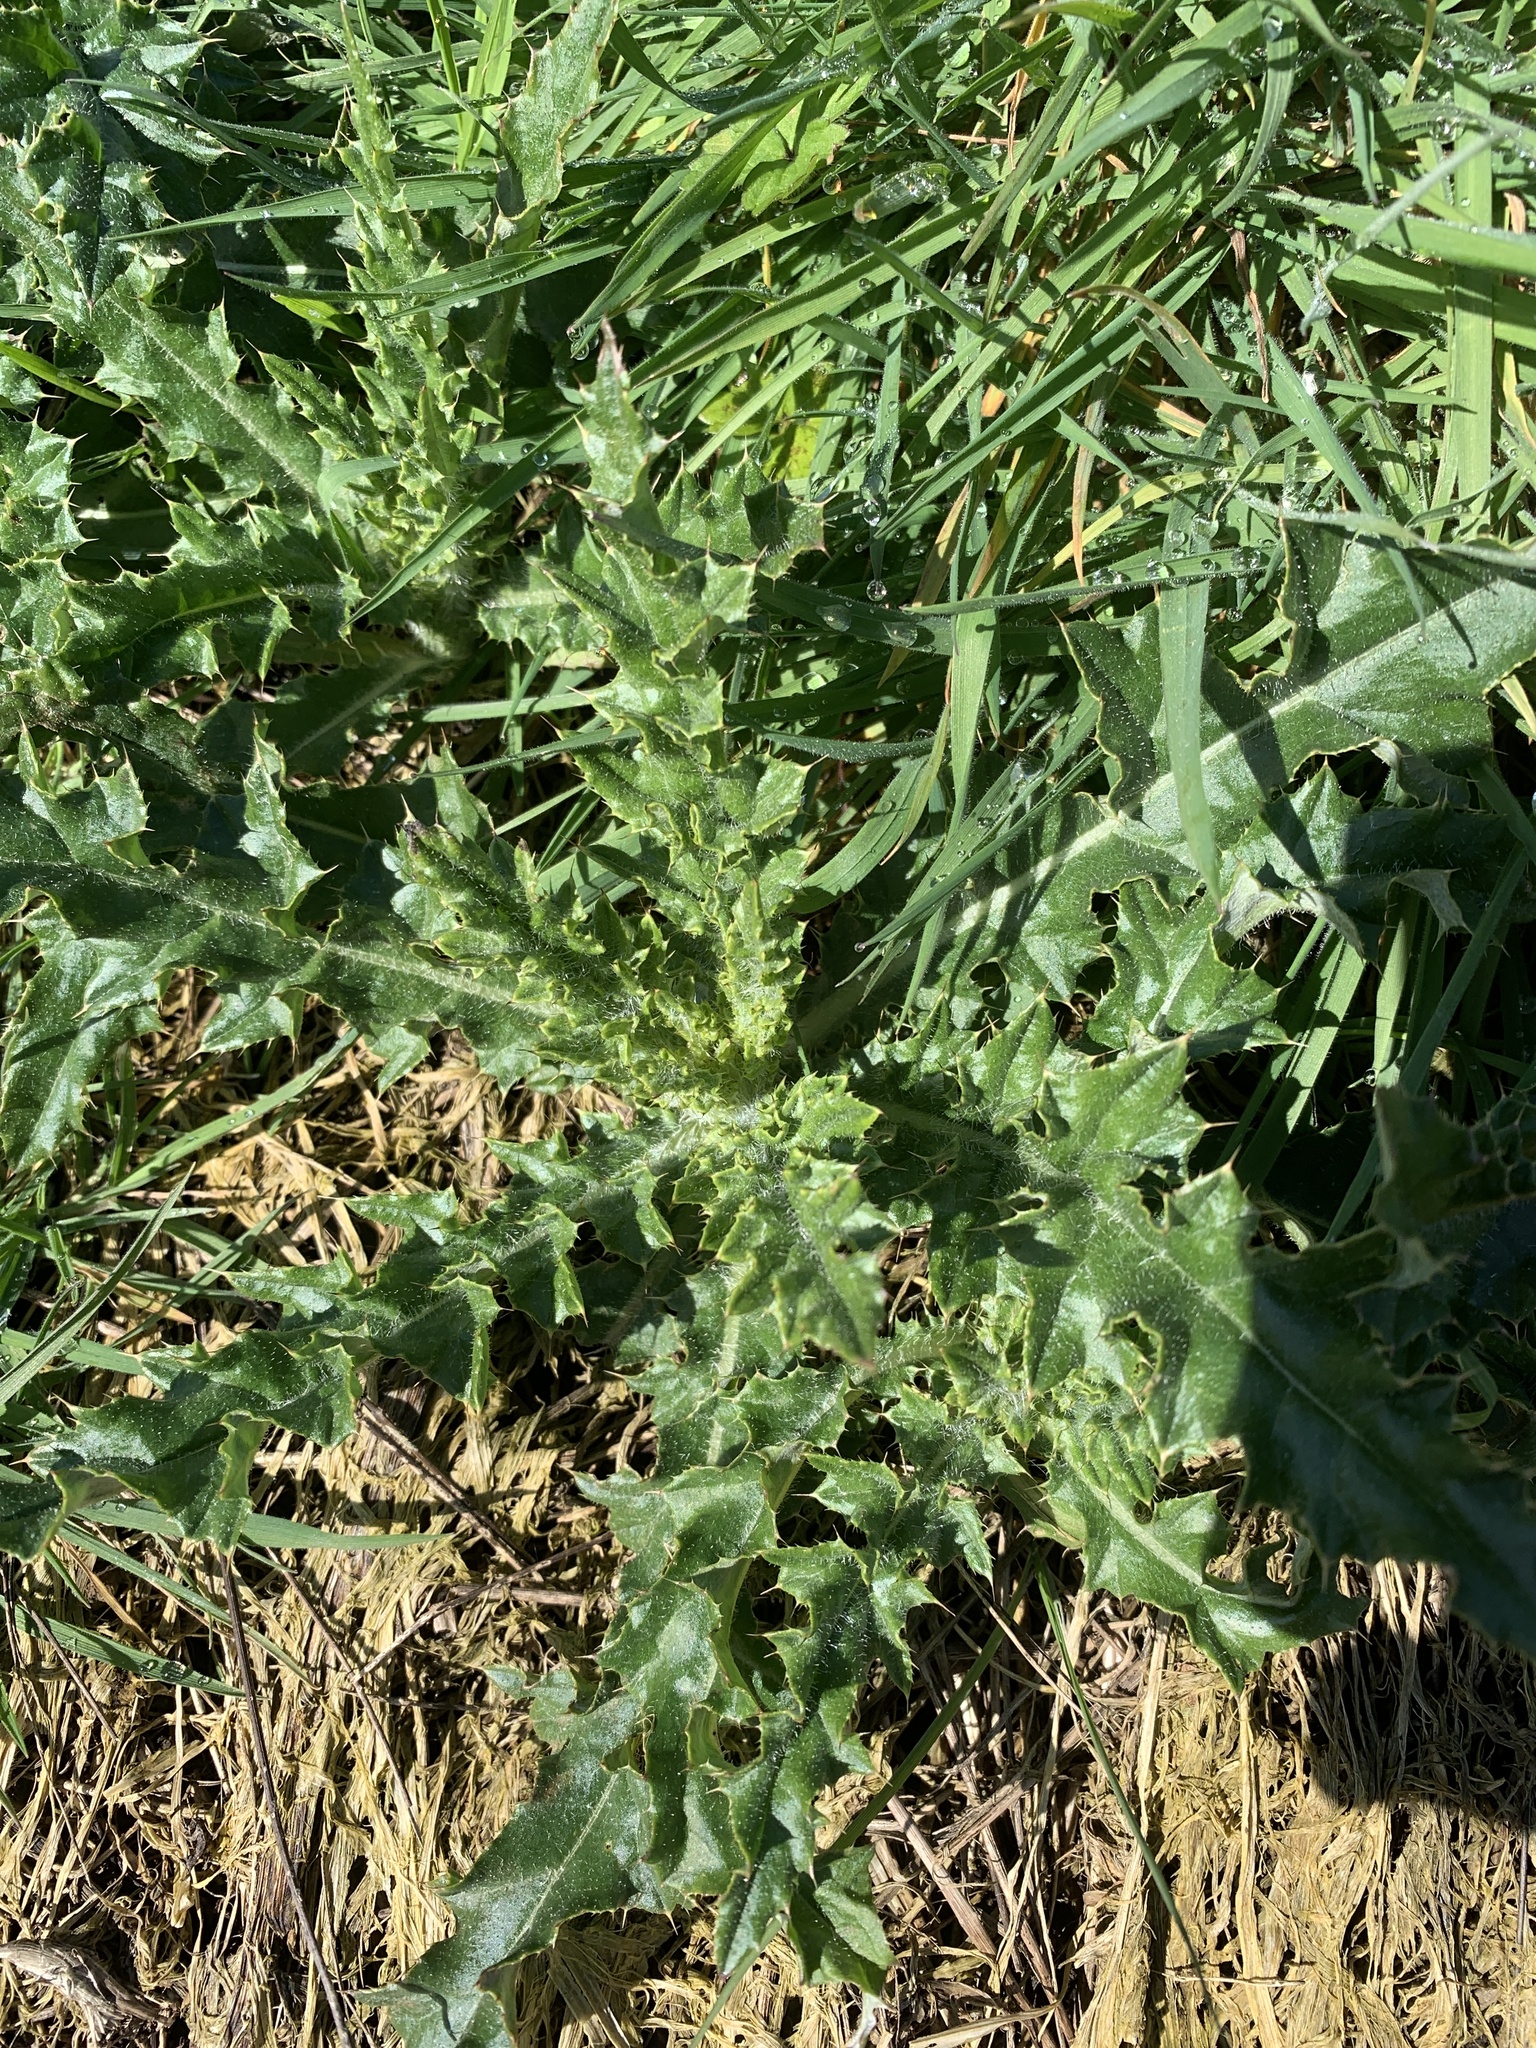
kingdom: Plantae
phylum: Tracheophyta
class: Magnoliopsida
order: Asterales
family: Asteraceae
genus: Cirsium
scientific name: Cirsium arvense
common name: Creeping thistle
